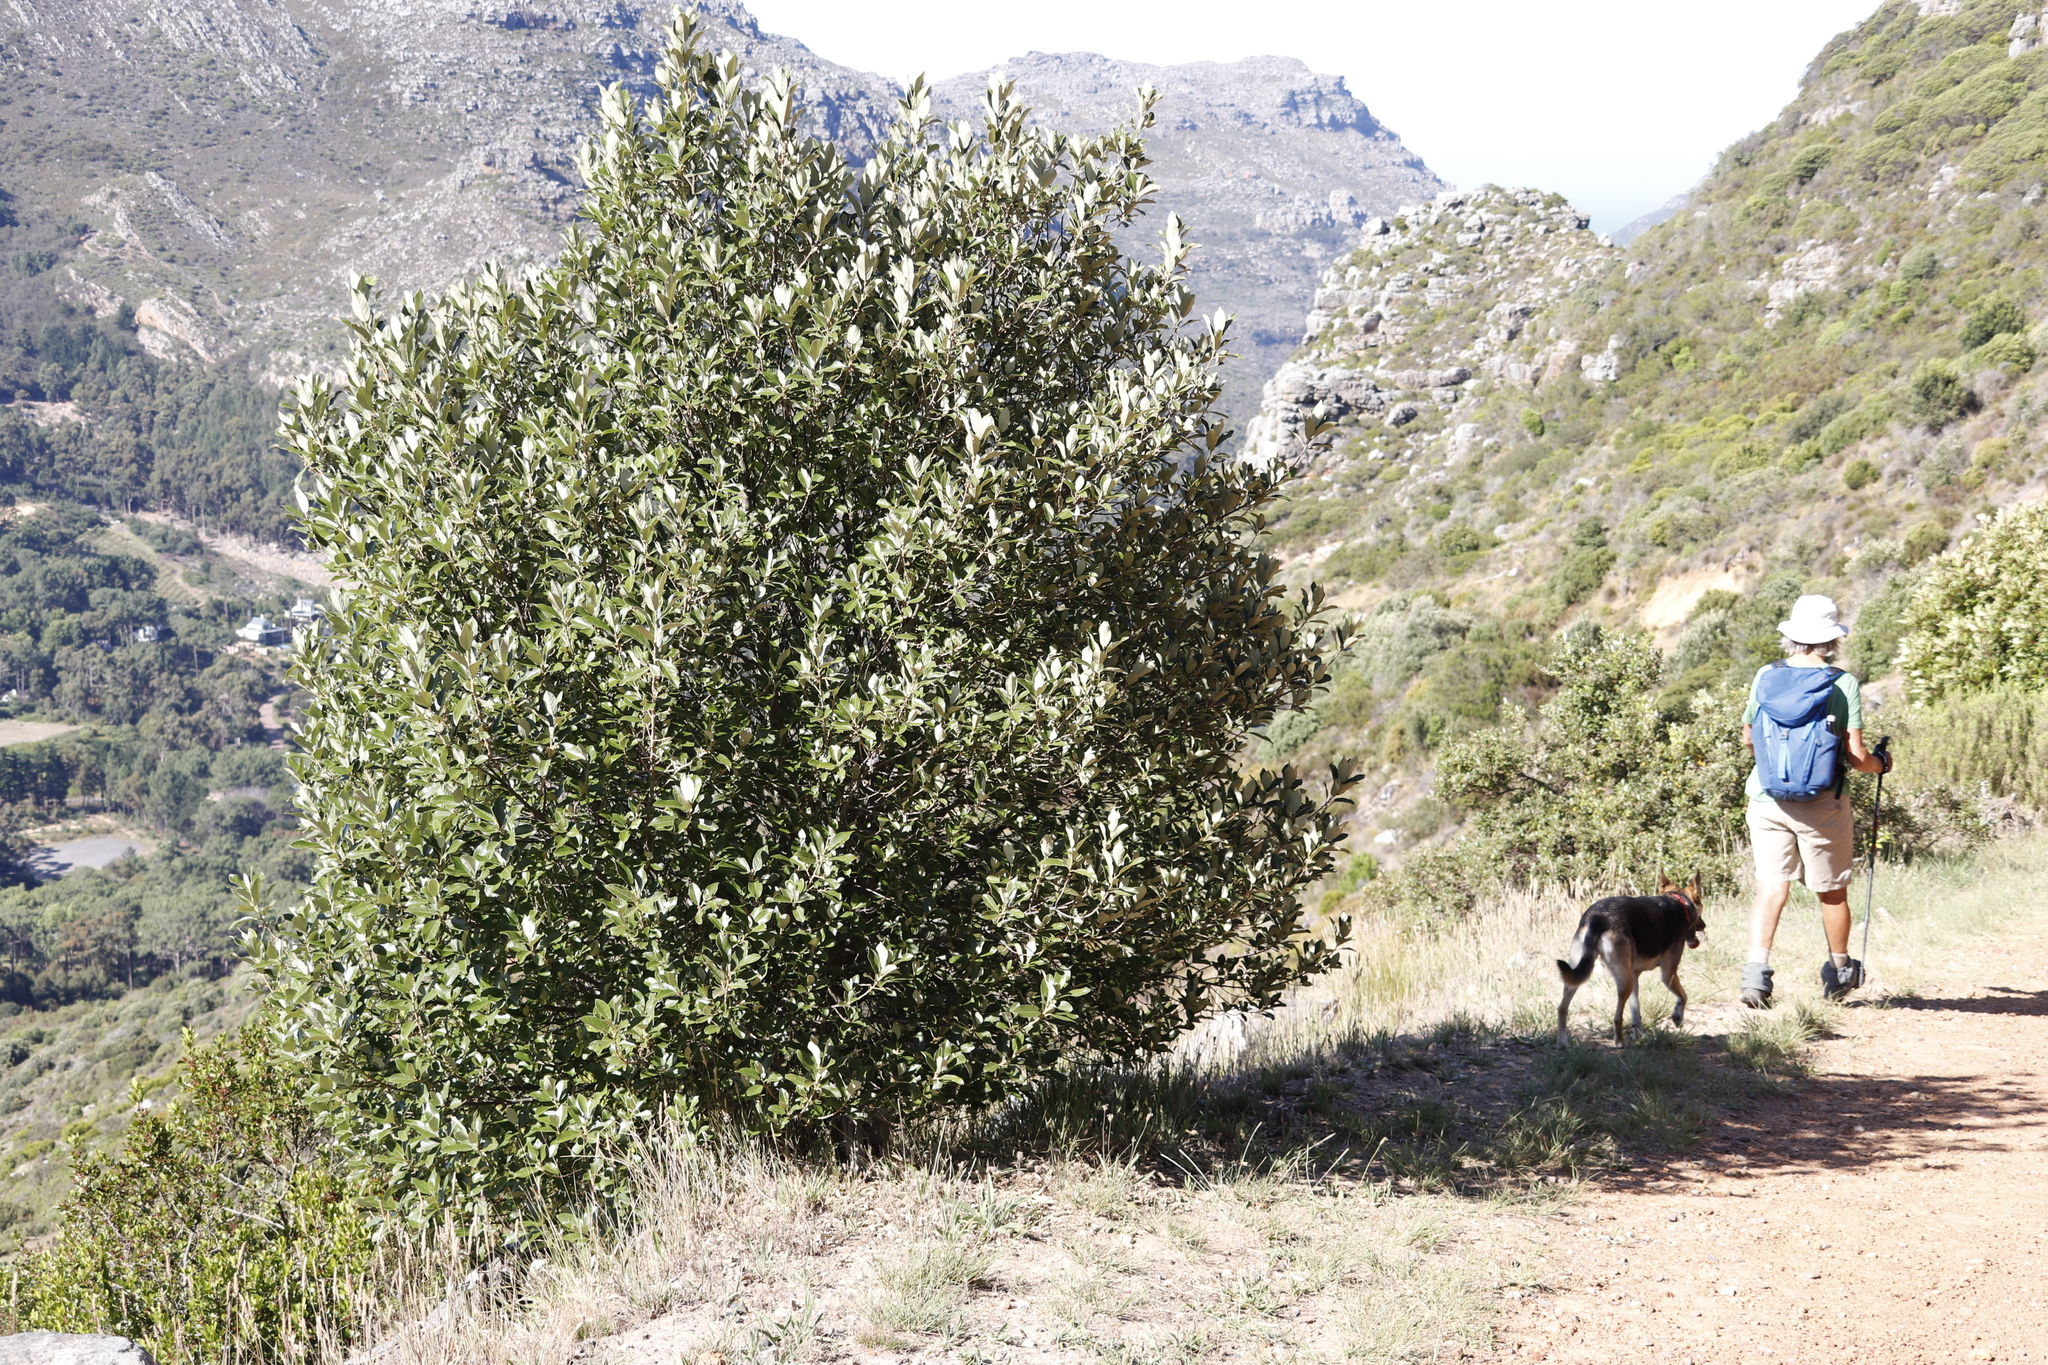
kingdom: Plantae
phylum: Tracheophyta
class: Magnoliopsida
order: Malpighiales
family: Achariaceae
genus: Kiggelaria
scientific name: Kiggelaria africana
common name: Wild peach
